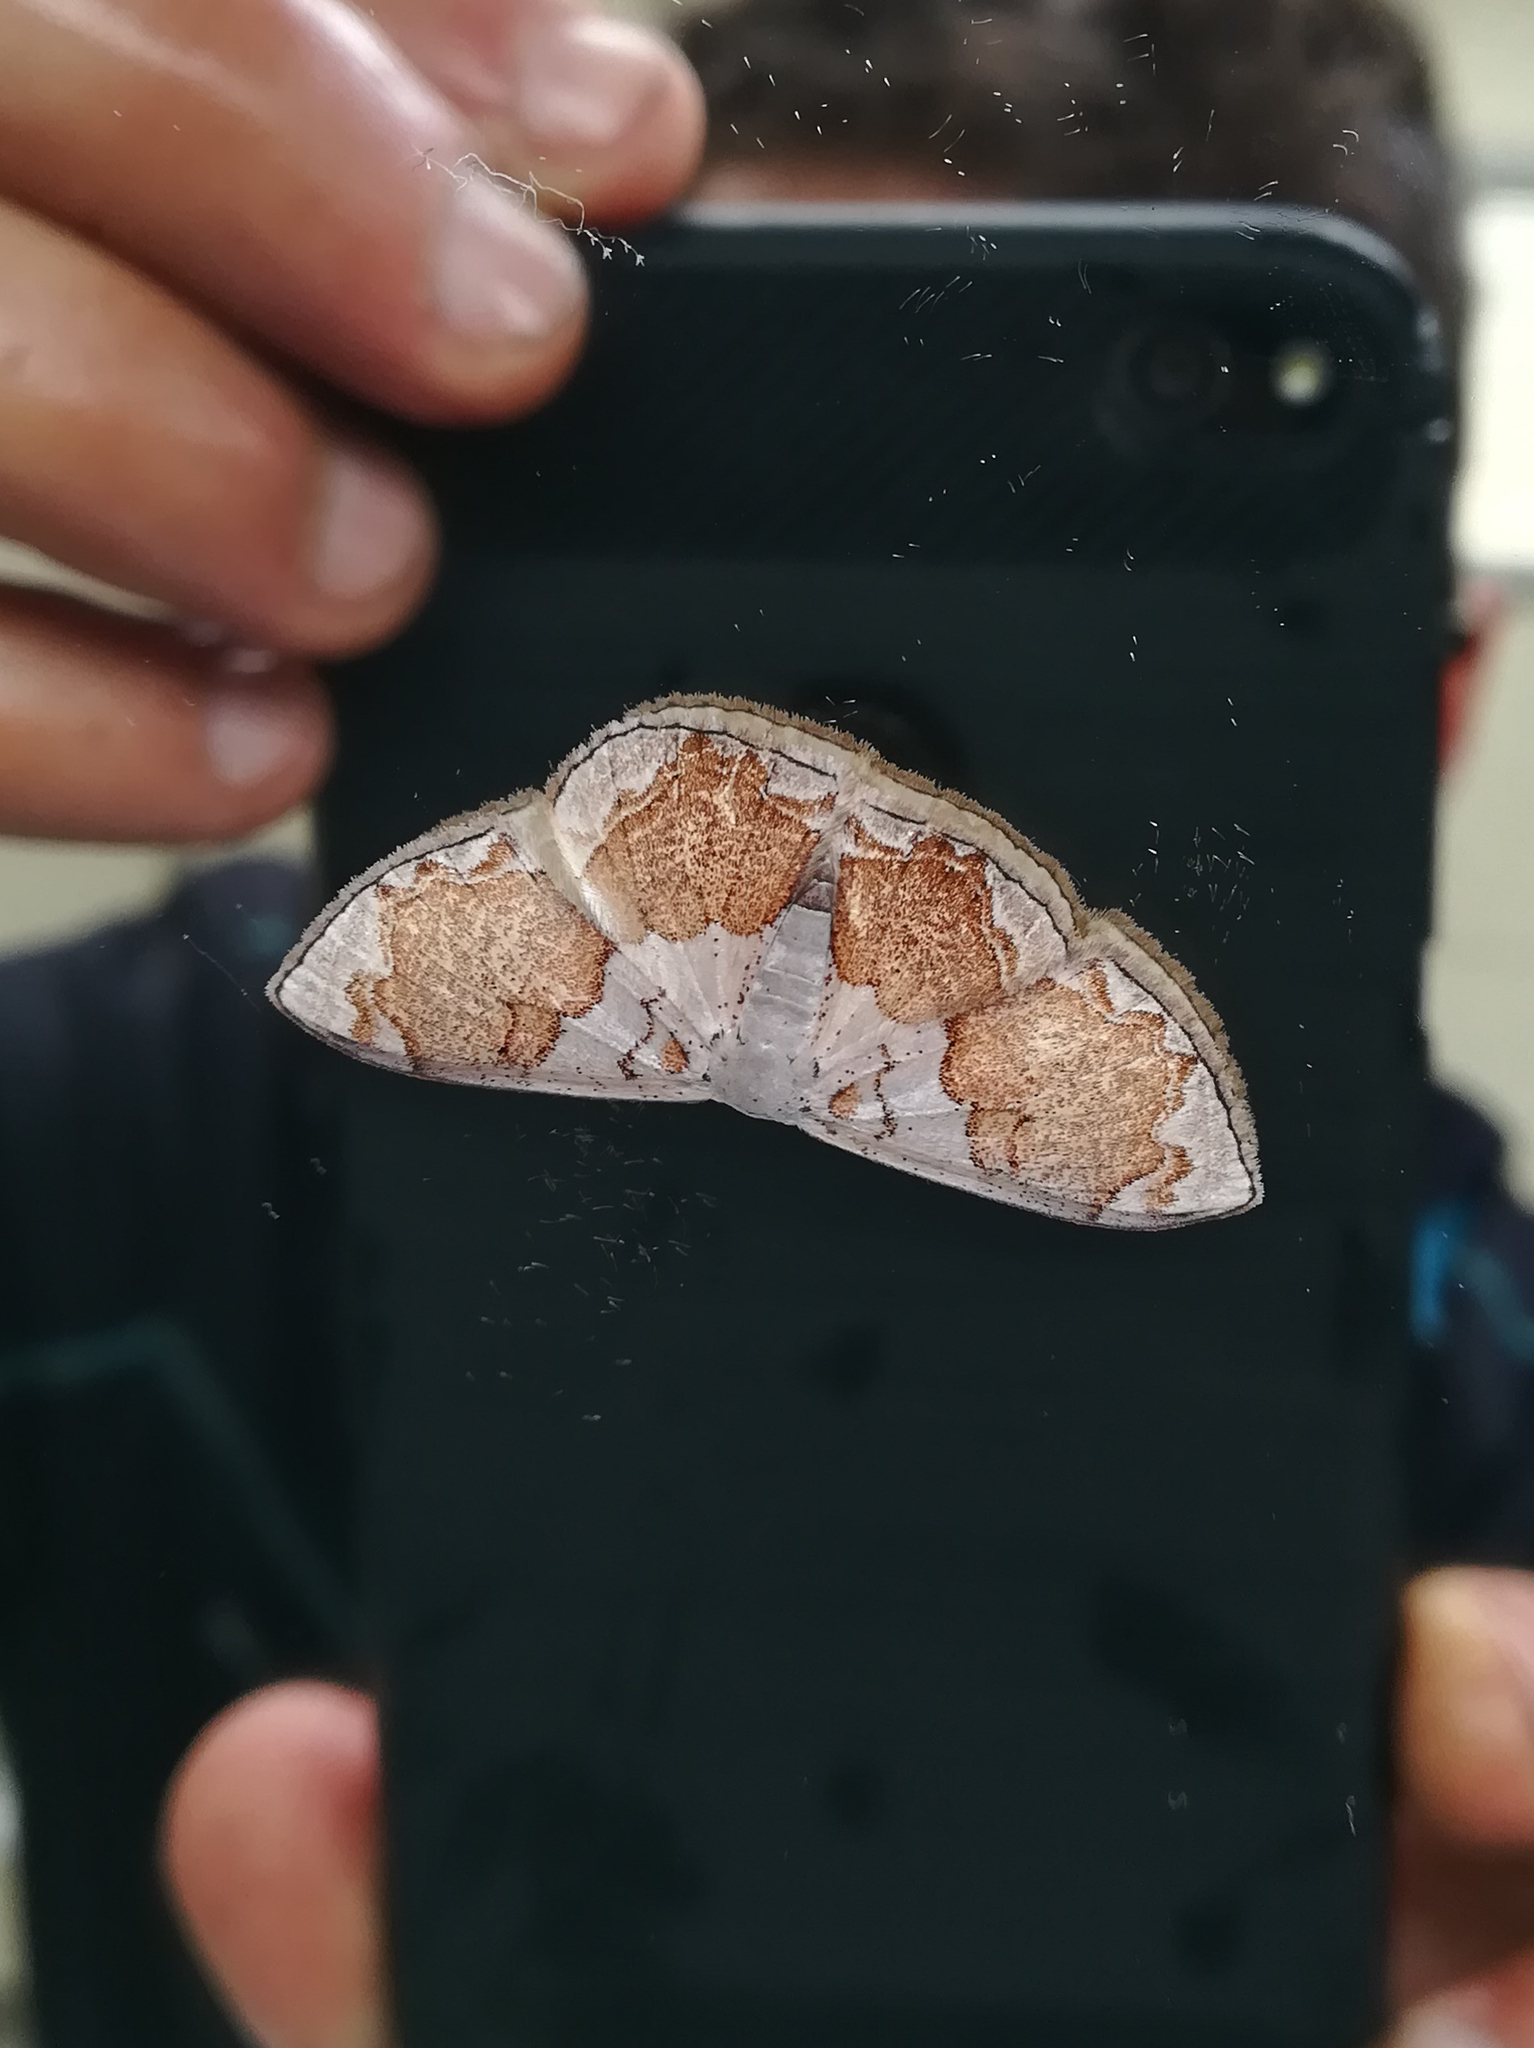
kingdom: Animalia
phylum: Arthropoda
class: Insecta
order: Lepidoptera
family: Geometridae
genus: Somatina
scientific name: Somatina eurymitra
